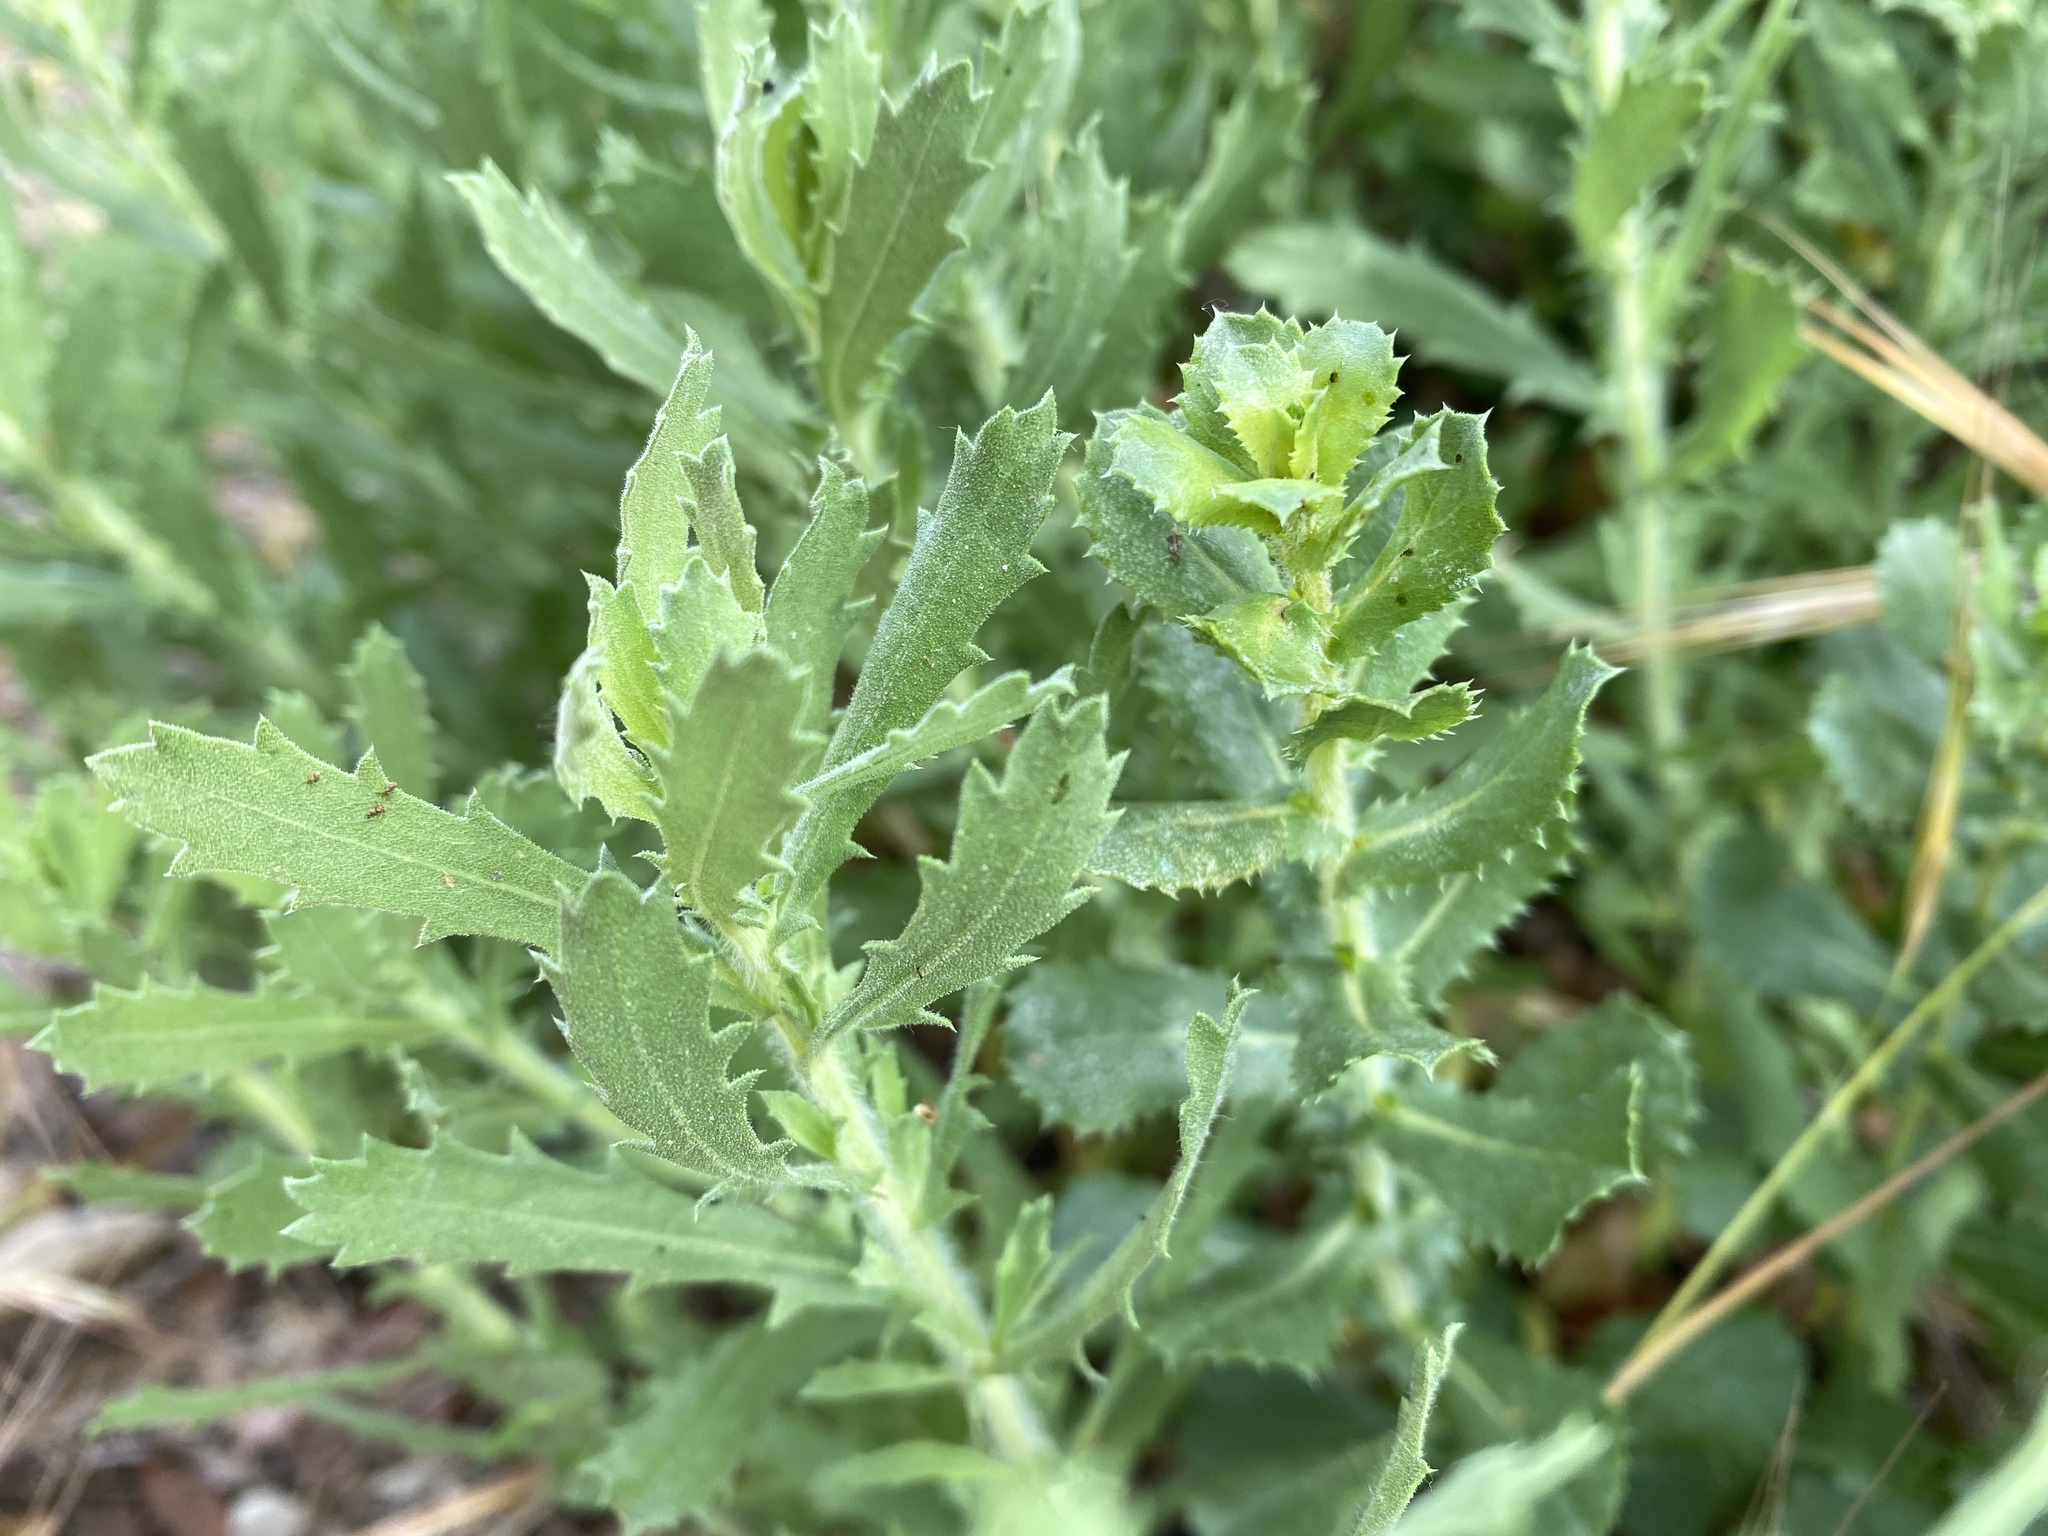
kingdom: Plantae
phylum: Tracheophyta
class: Magnoliopsida
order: Asterales
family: Asteraceae
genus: Hazardia
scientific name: Hazardia squarrosa
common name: Saw-tooth goldenbush
